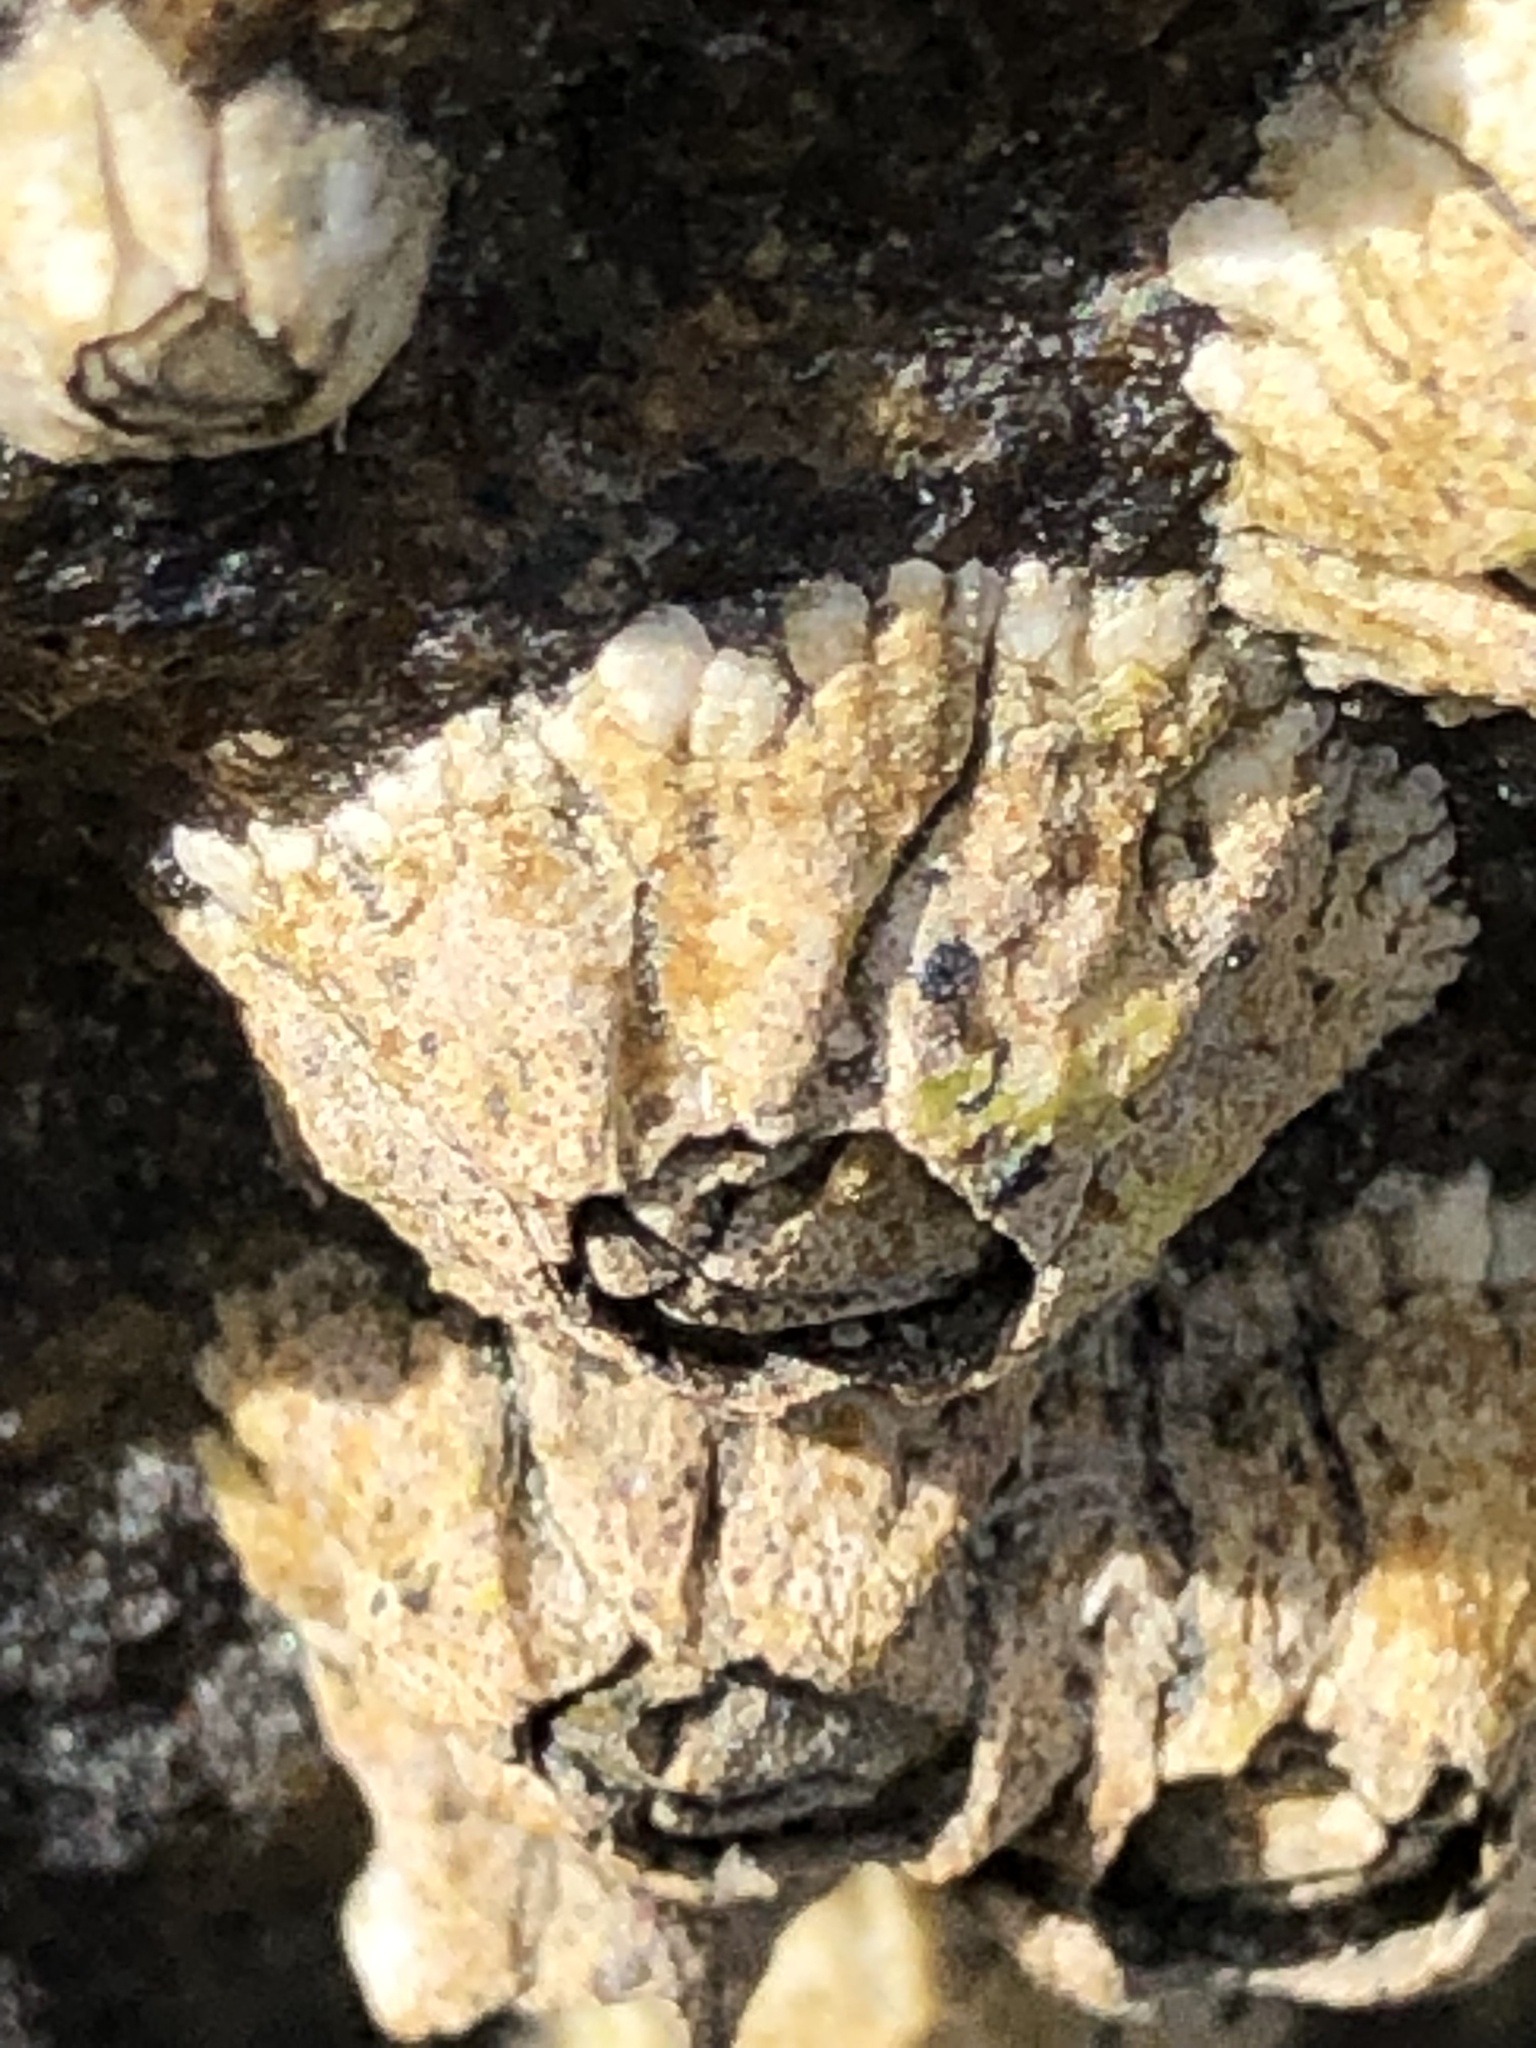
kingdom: Animalia
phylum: Arthropoda
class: Maxillopoda
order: Sessilia
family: Archaeobalanidae
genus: Semibalanus
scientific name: Semibalanus balanoides
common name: Acorn barnacle
